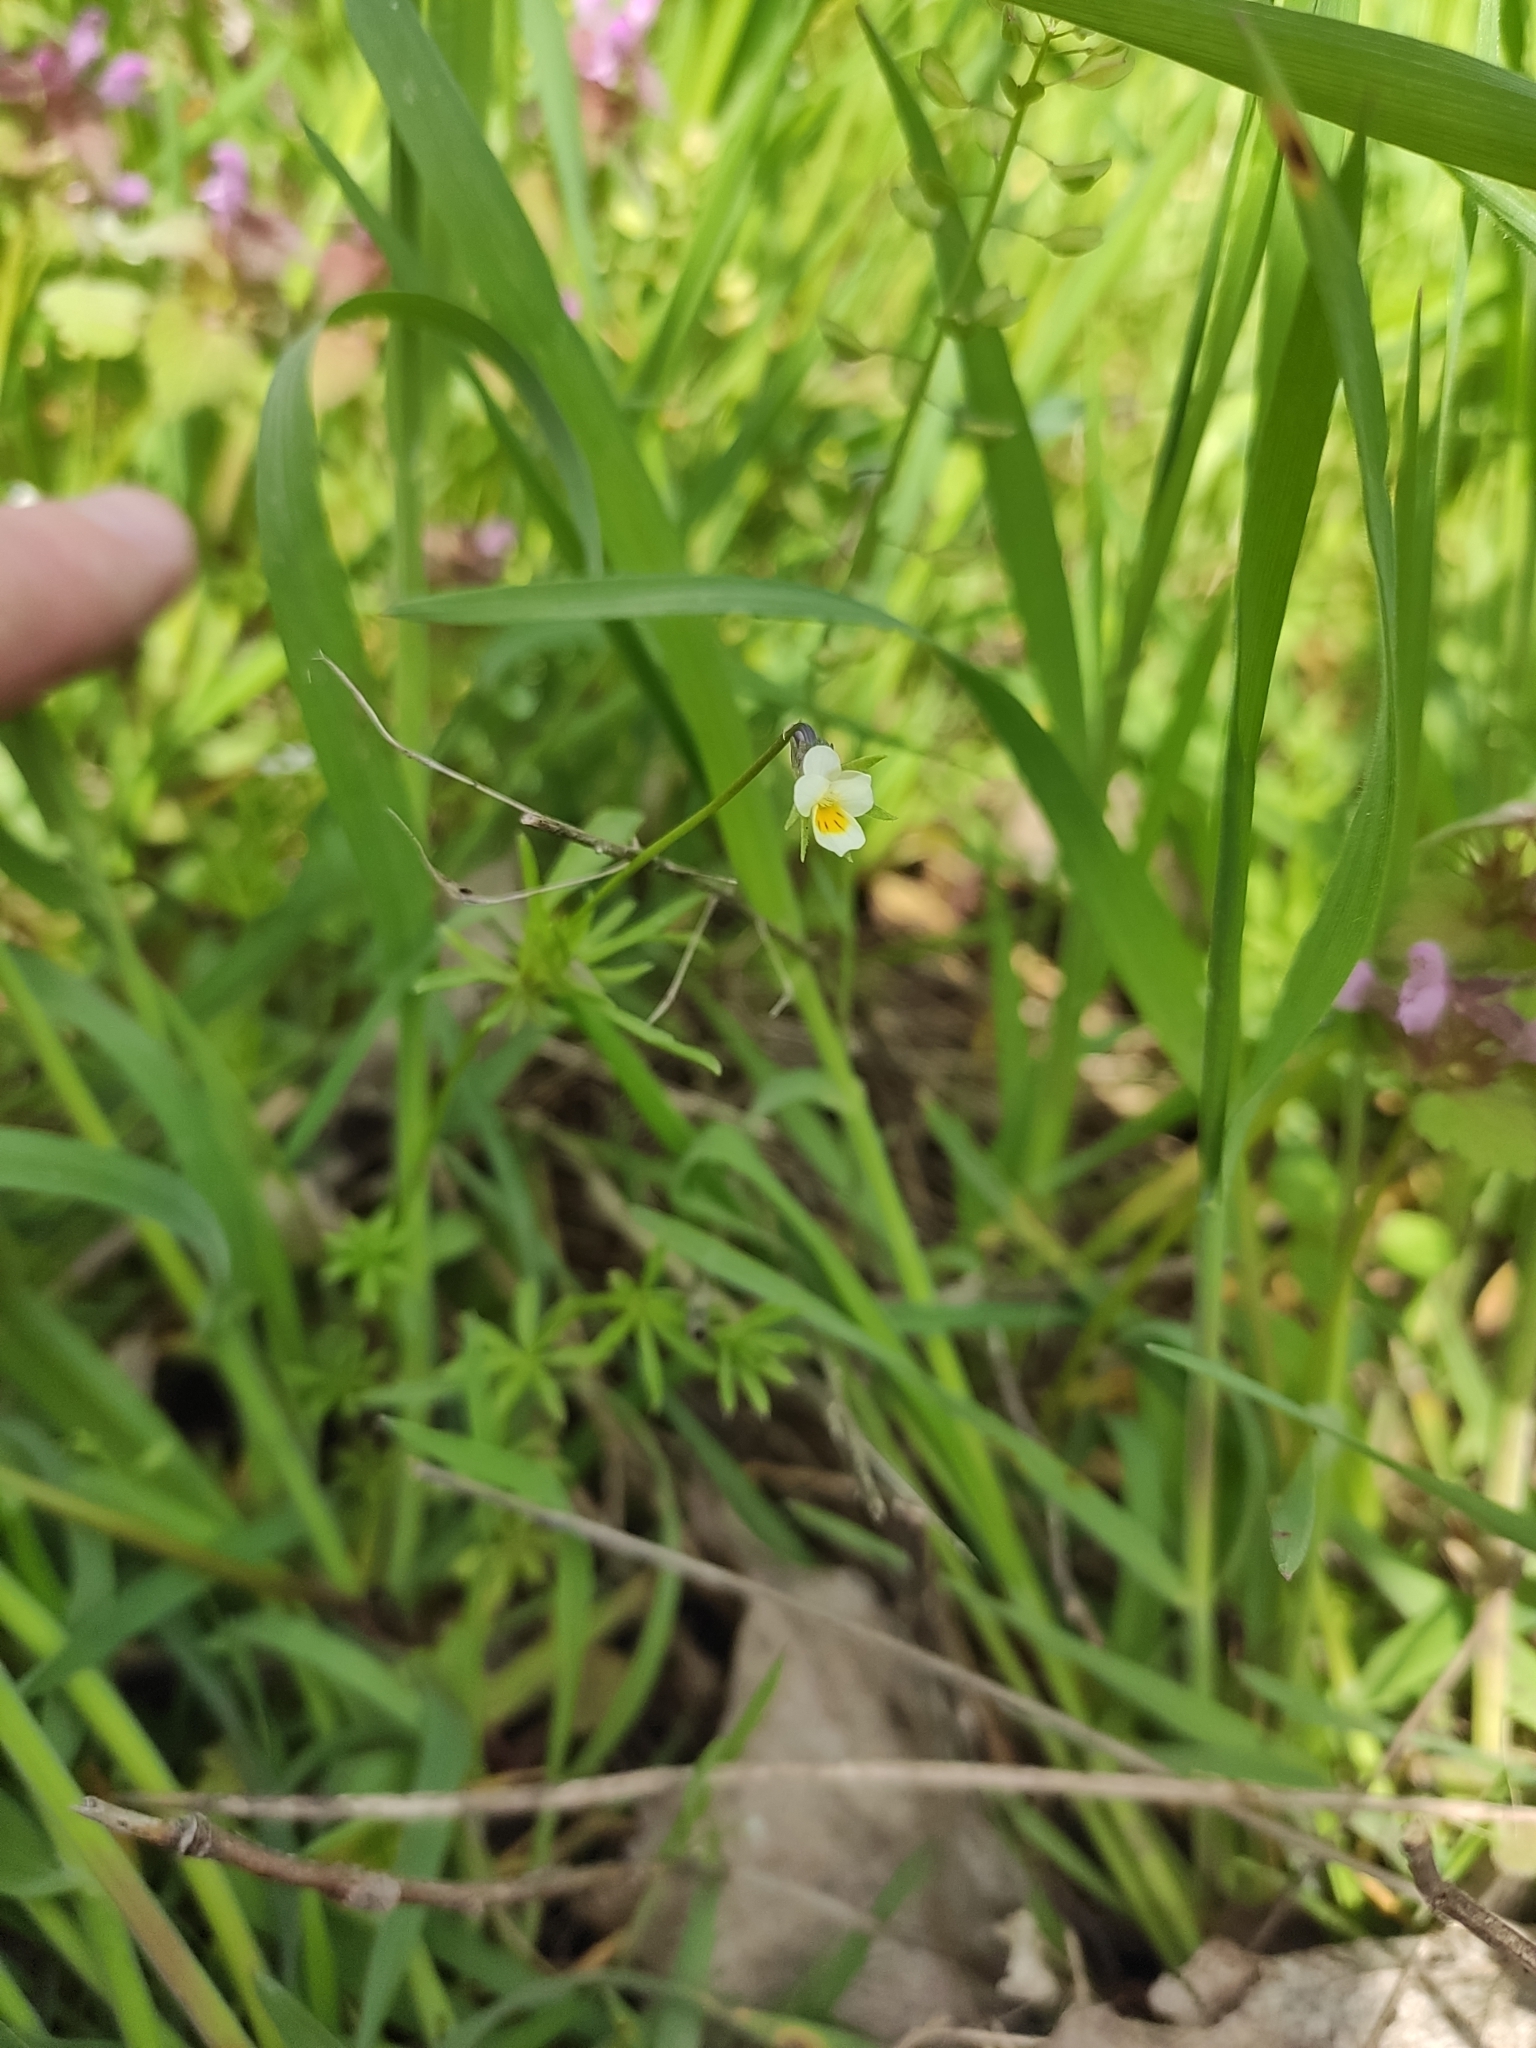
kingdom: Plantae
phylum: Tracheophyta
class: Magnoliopsida
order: Malpighiales
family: Violaceae
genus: Viola
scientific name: Viola arvensis
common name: Field pansy
